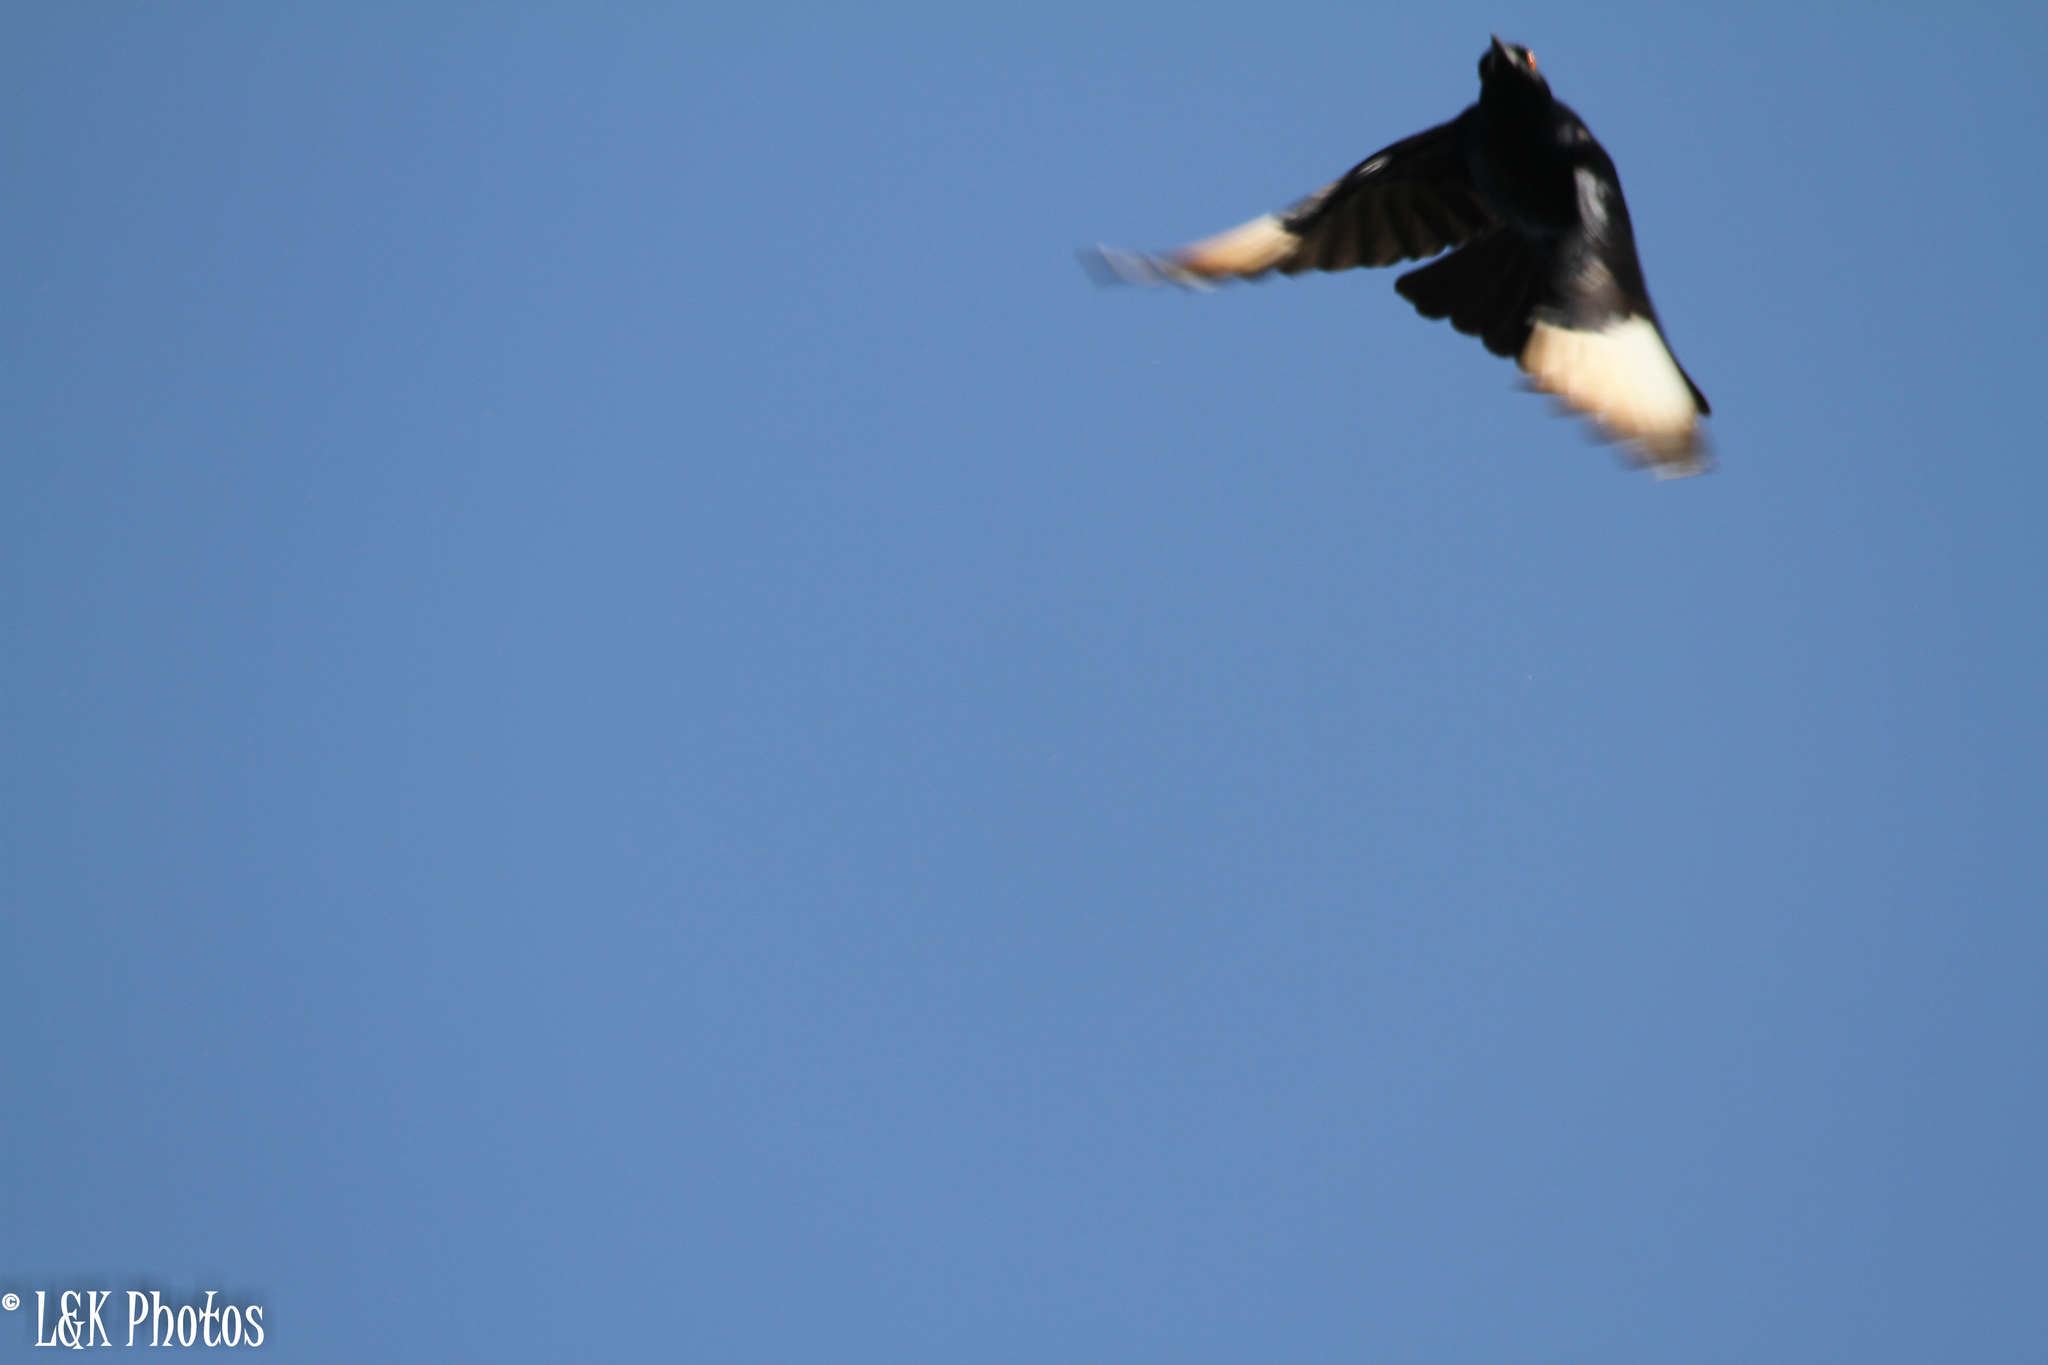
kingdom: Animalia
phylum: Chordata
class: Aves
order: Passeriformes
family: Sturnidae
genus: Onychognathus
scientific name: Onychognathus nabouroup
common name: Pale-winged starling
